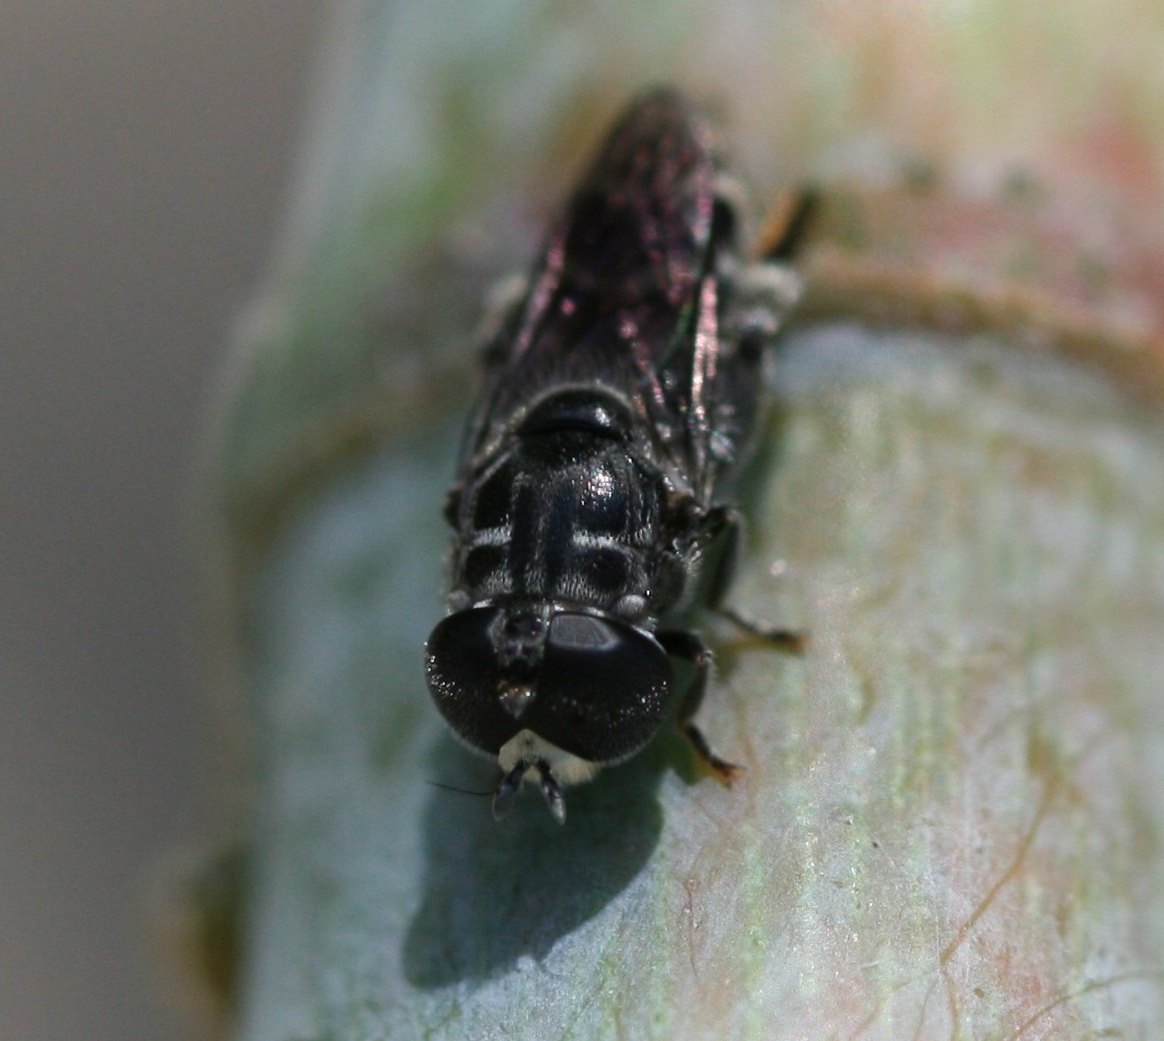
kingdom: Animalia
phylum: Arthropoda
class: Insecta
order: Diptera
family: Syrphidae
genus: Eumerus
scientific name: Eumerus latitarsis
